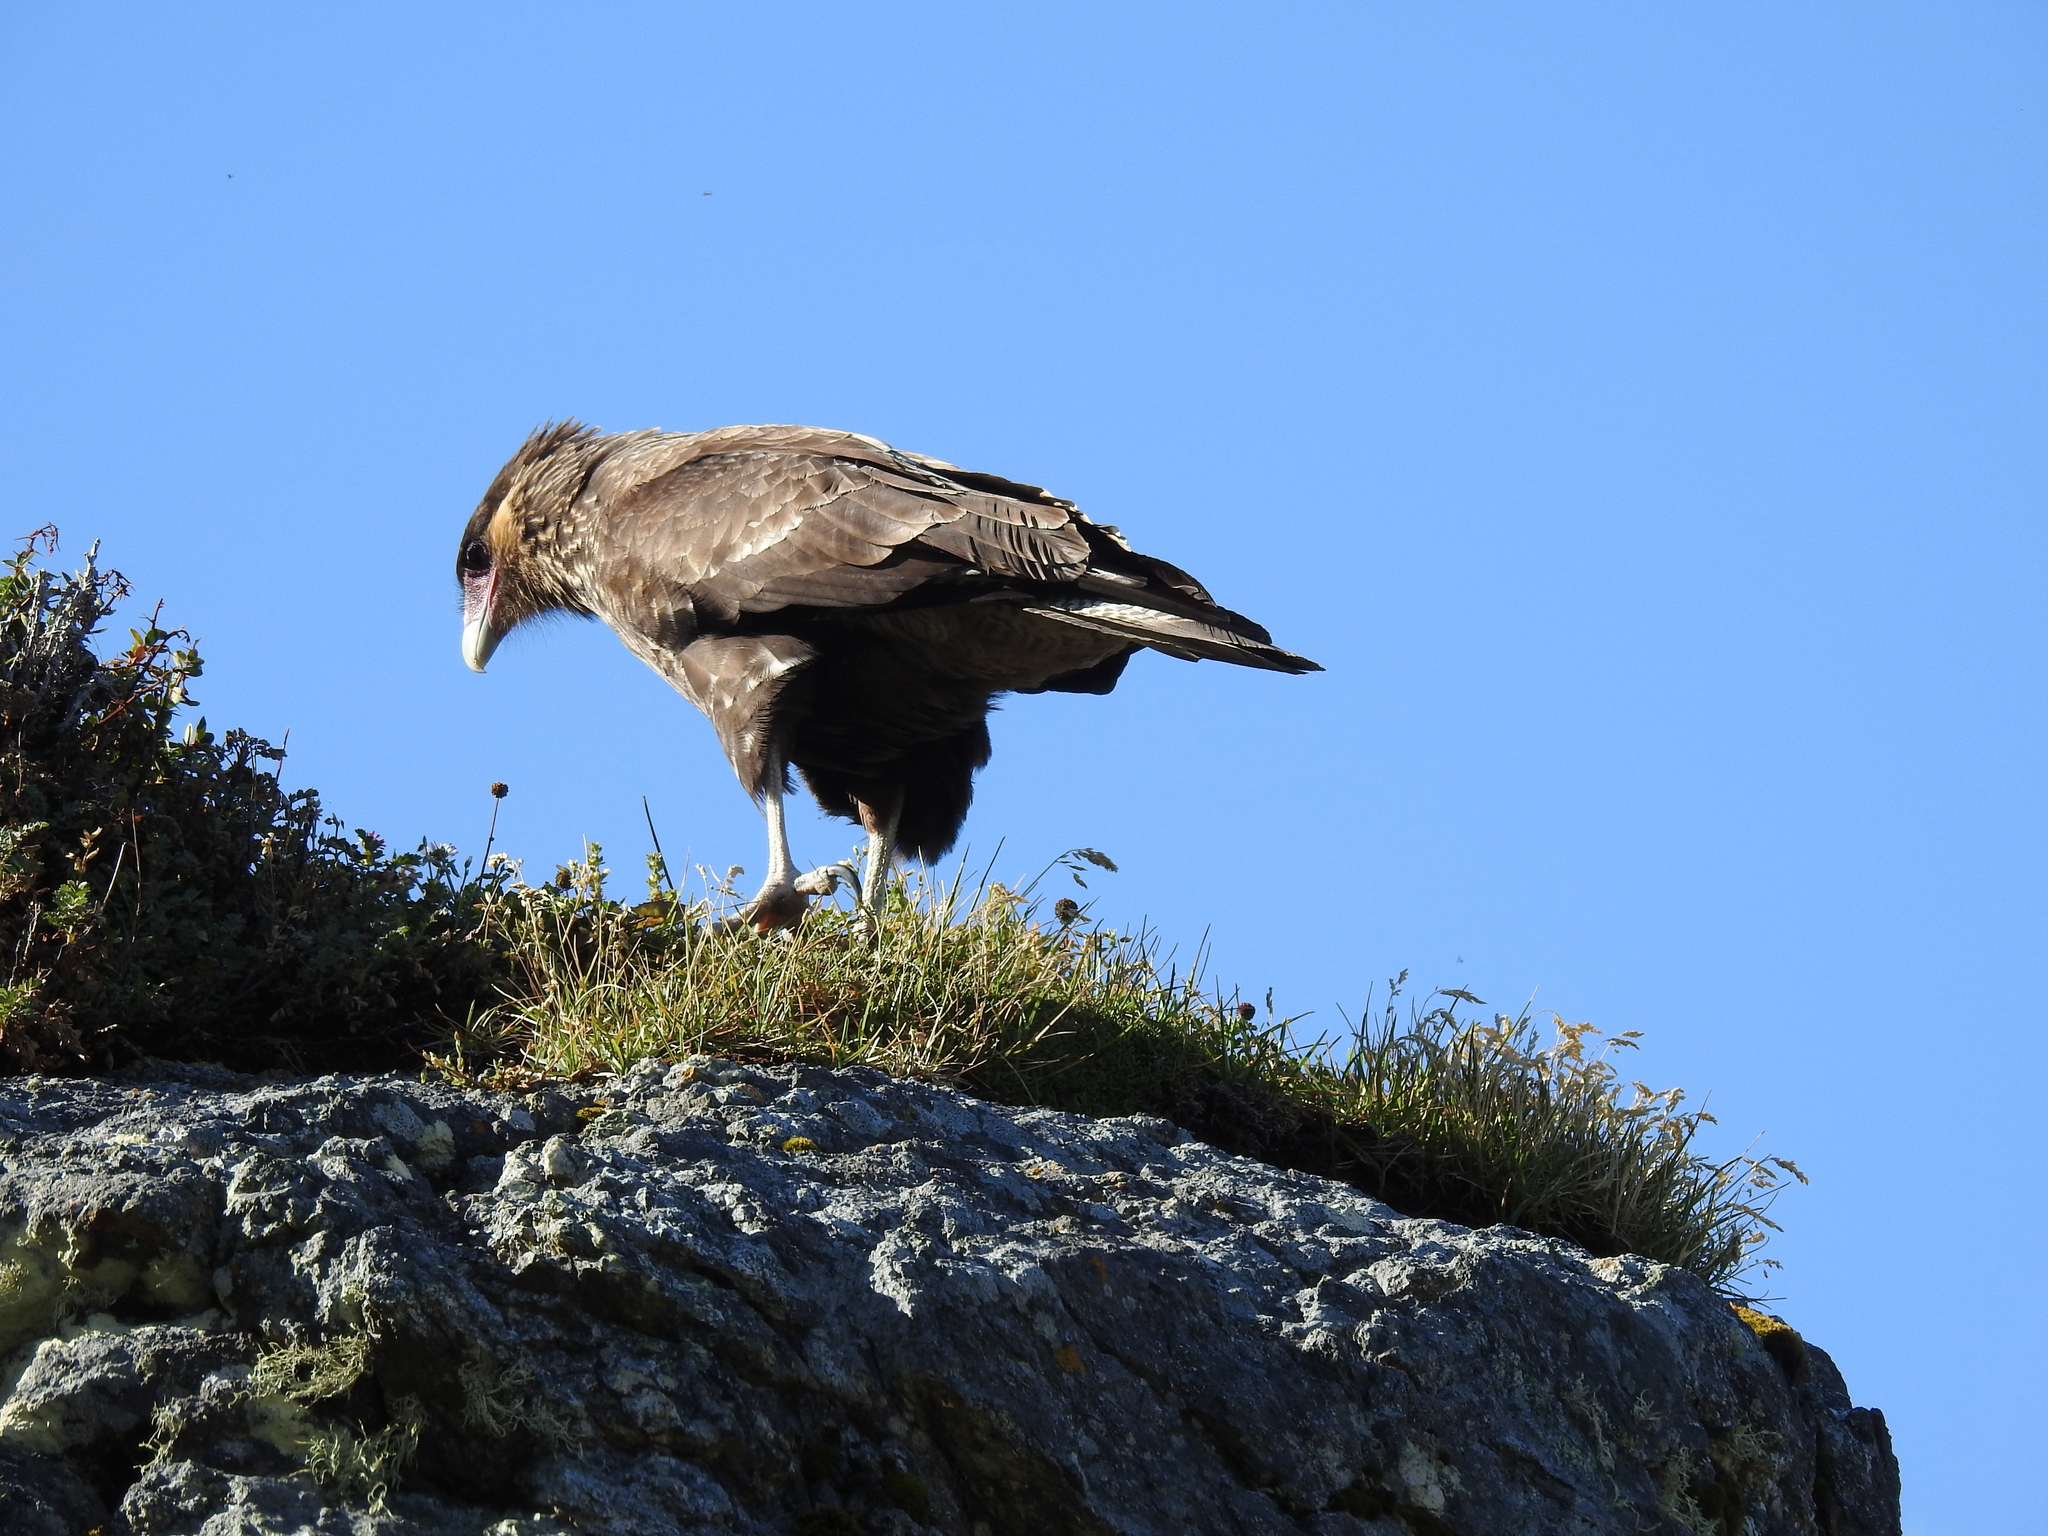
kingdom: Animalia
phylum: Chordata
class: Aves
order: Falconiformes
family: Falconidae
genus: Caracara
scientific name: Caracara plancus
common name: Southern caracara
